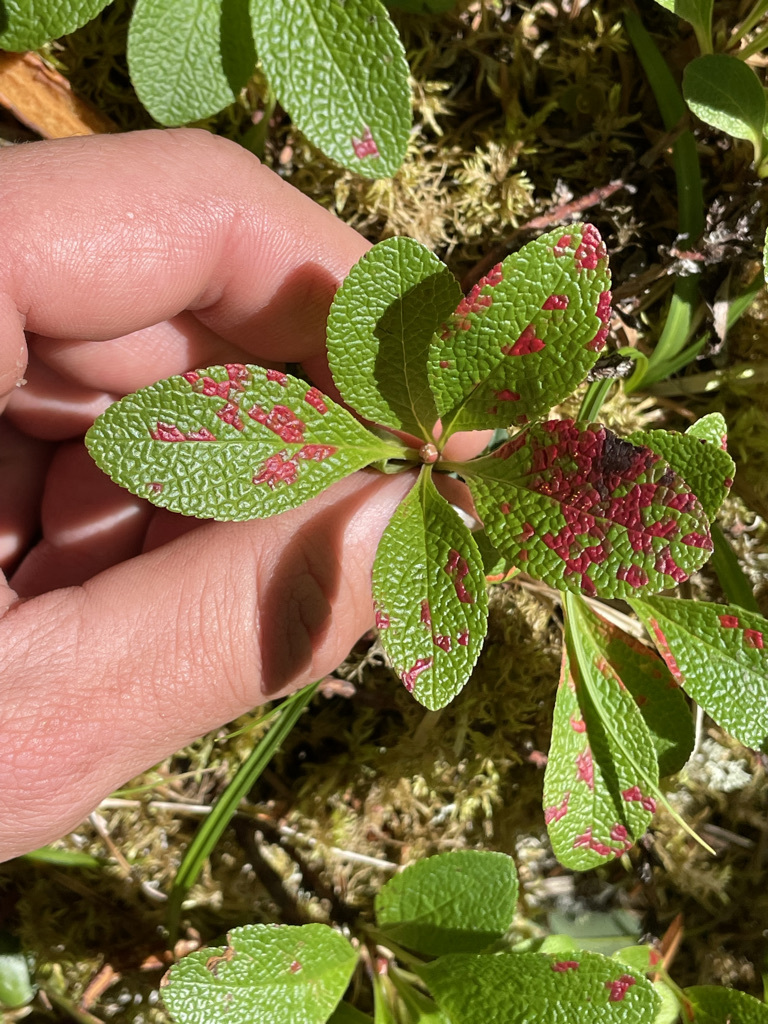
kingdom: Plantae
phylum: Tracheophyta
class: Magnoliopsida
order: Ericales
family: Ericaceae
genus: Arctostaphylos
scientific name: Arctostaphylos rubra
